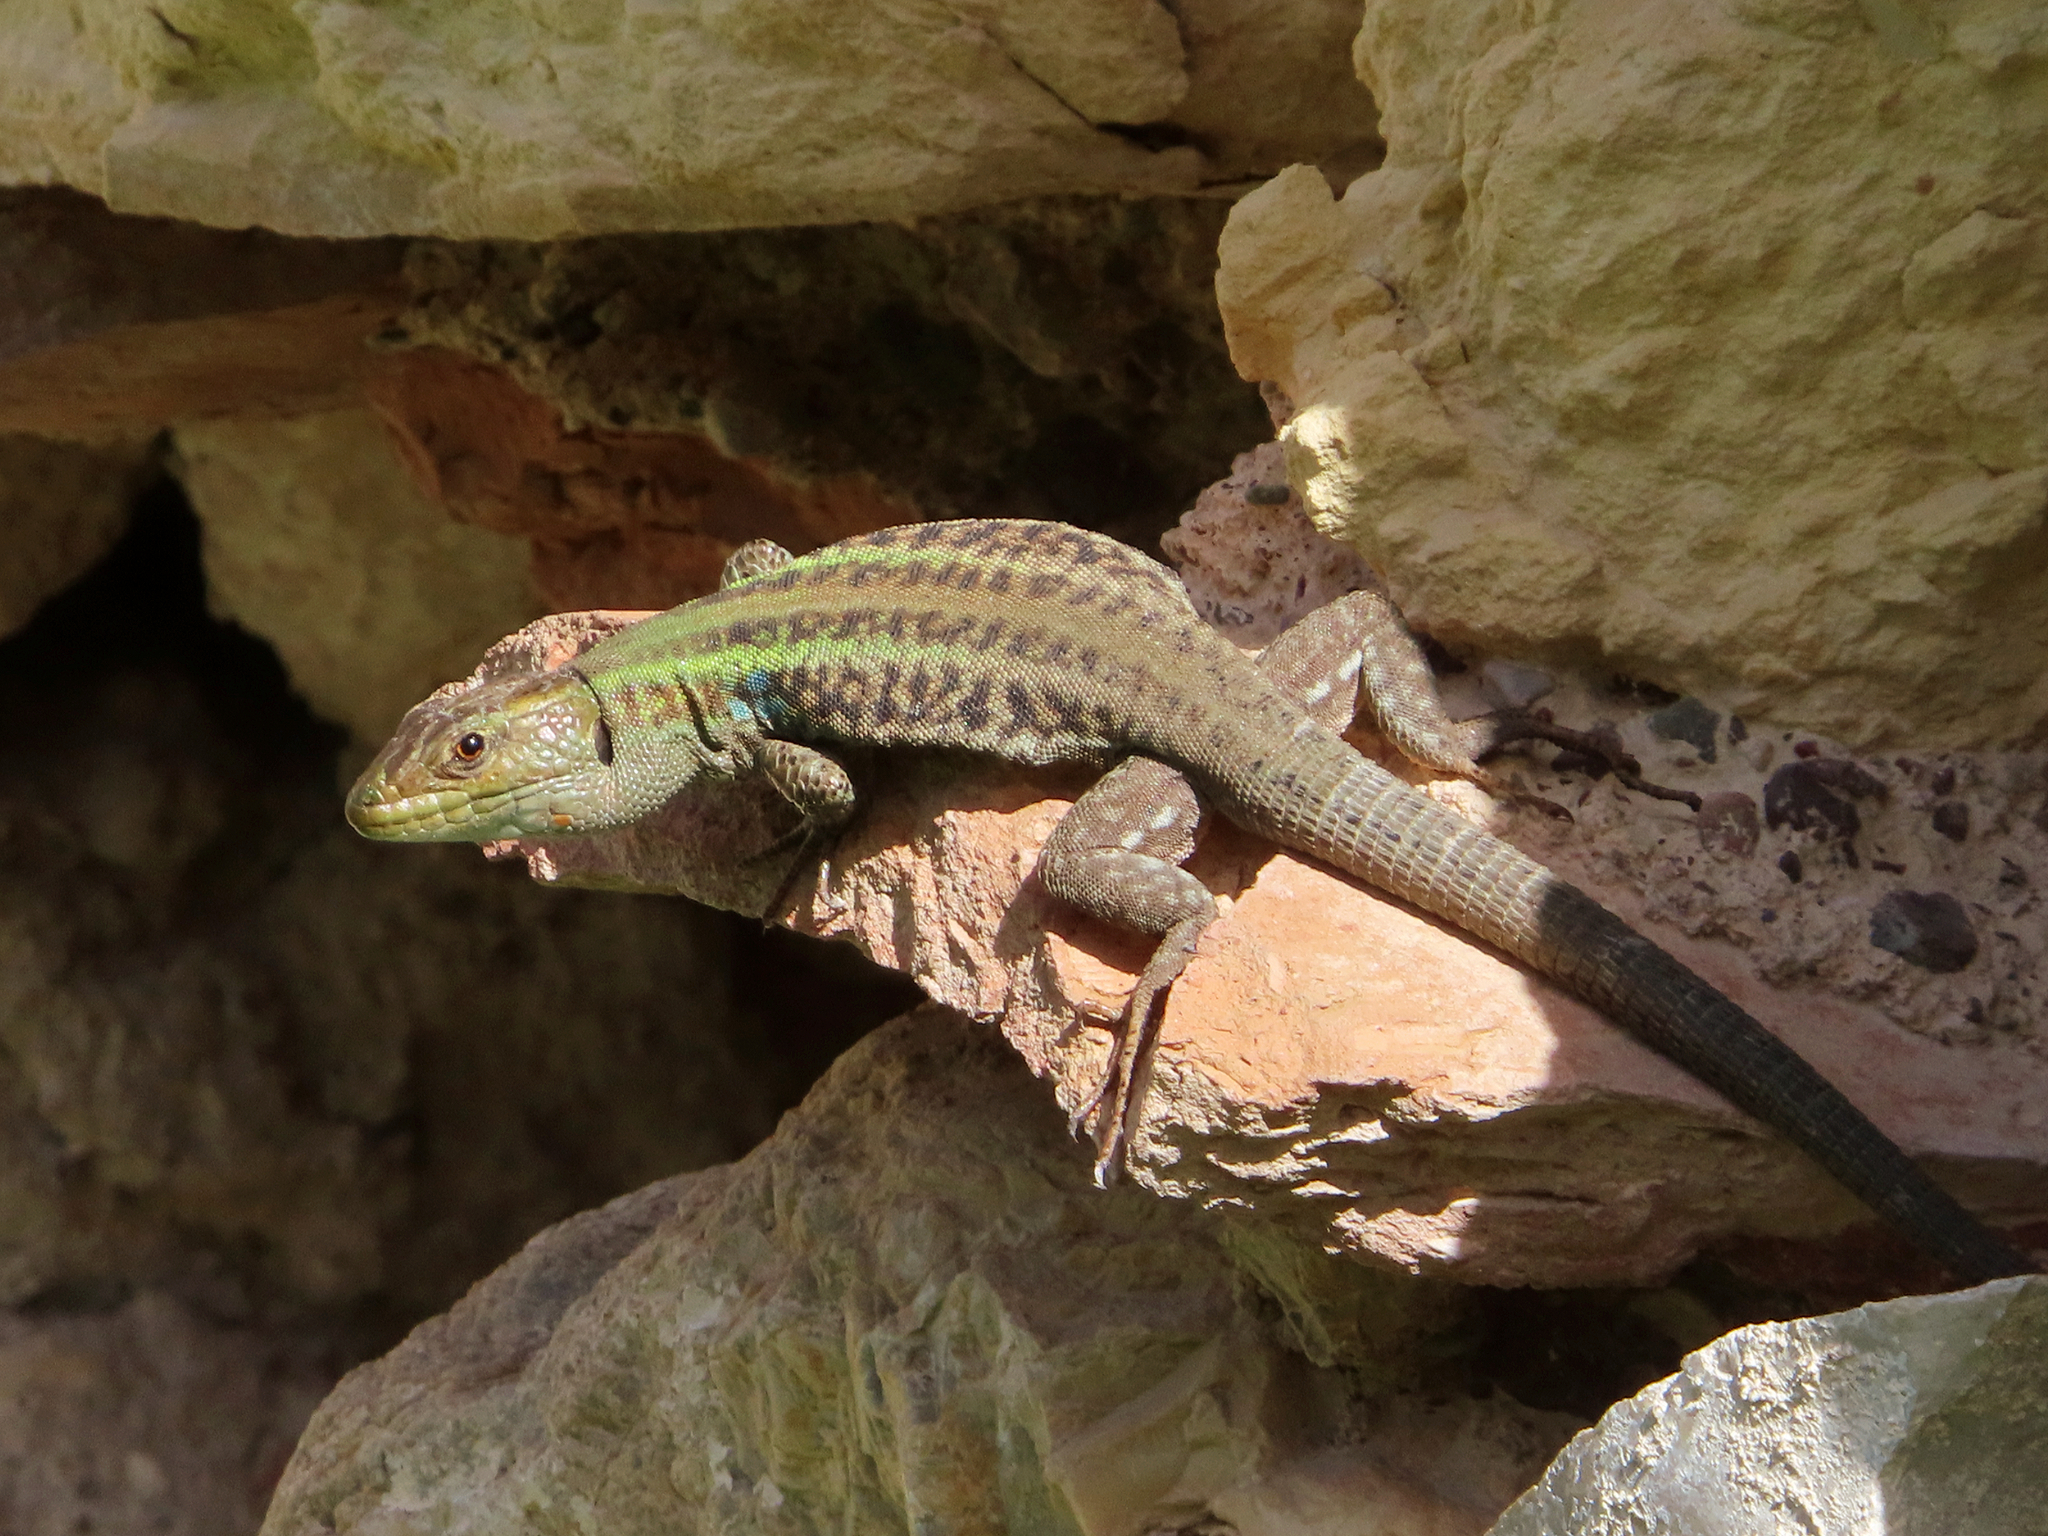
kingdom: Animalia
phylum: Chordata
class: Squamata
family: Lacertidae
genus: Podarcis
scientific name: Podarcis peloponnesiacus
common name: Peloponnese wall lizard
